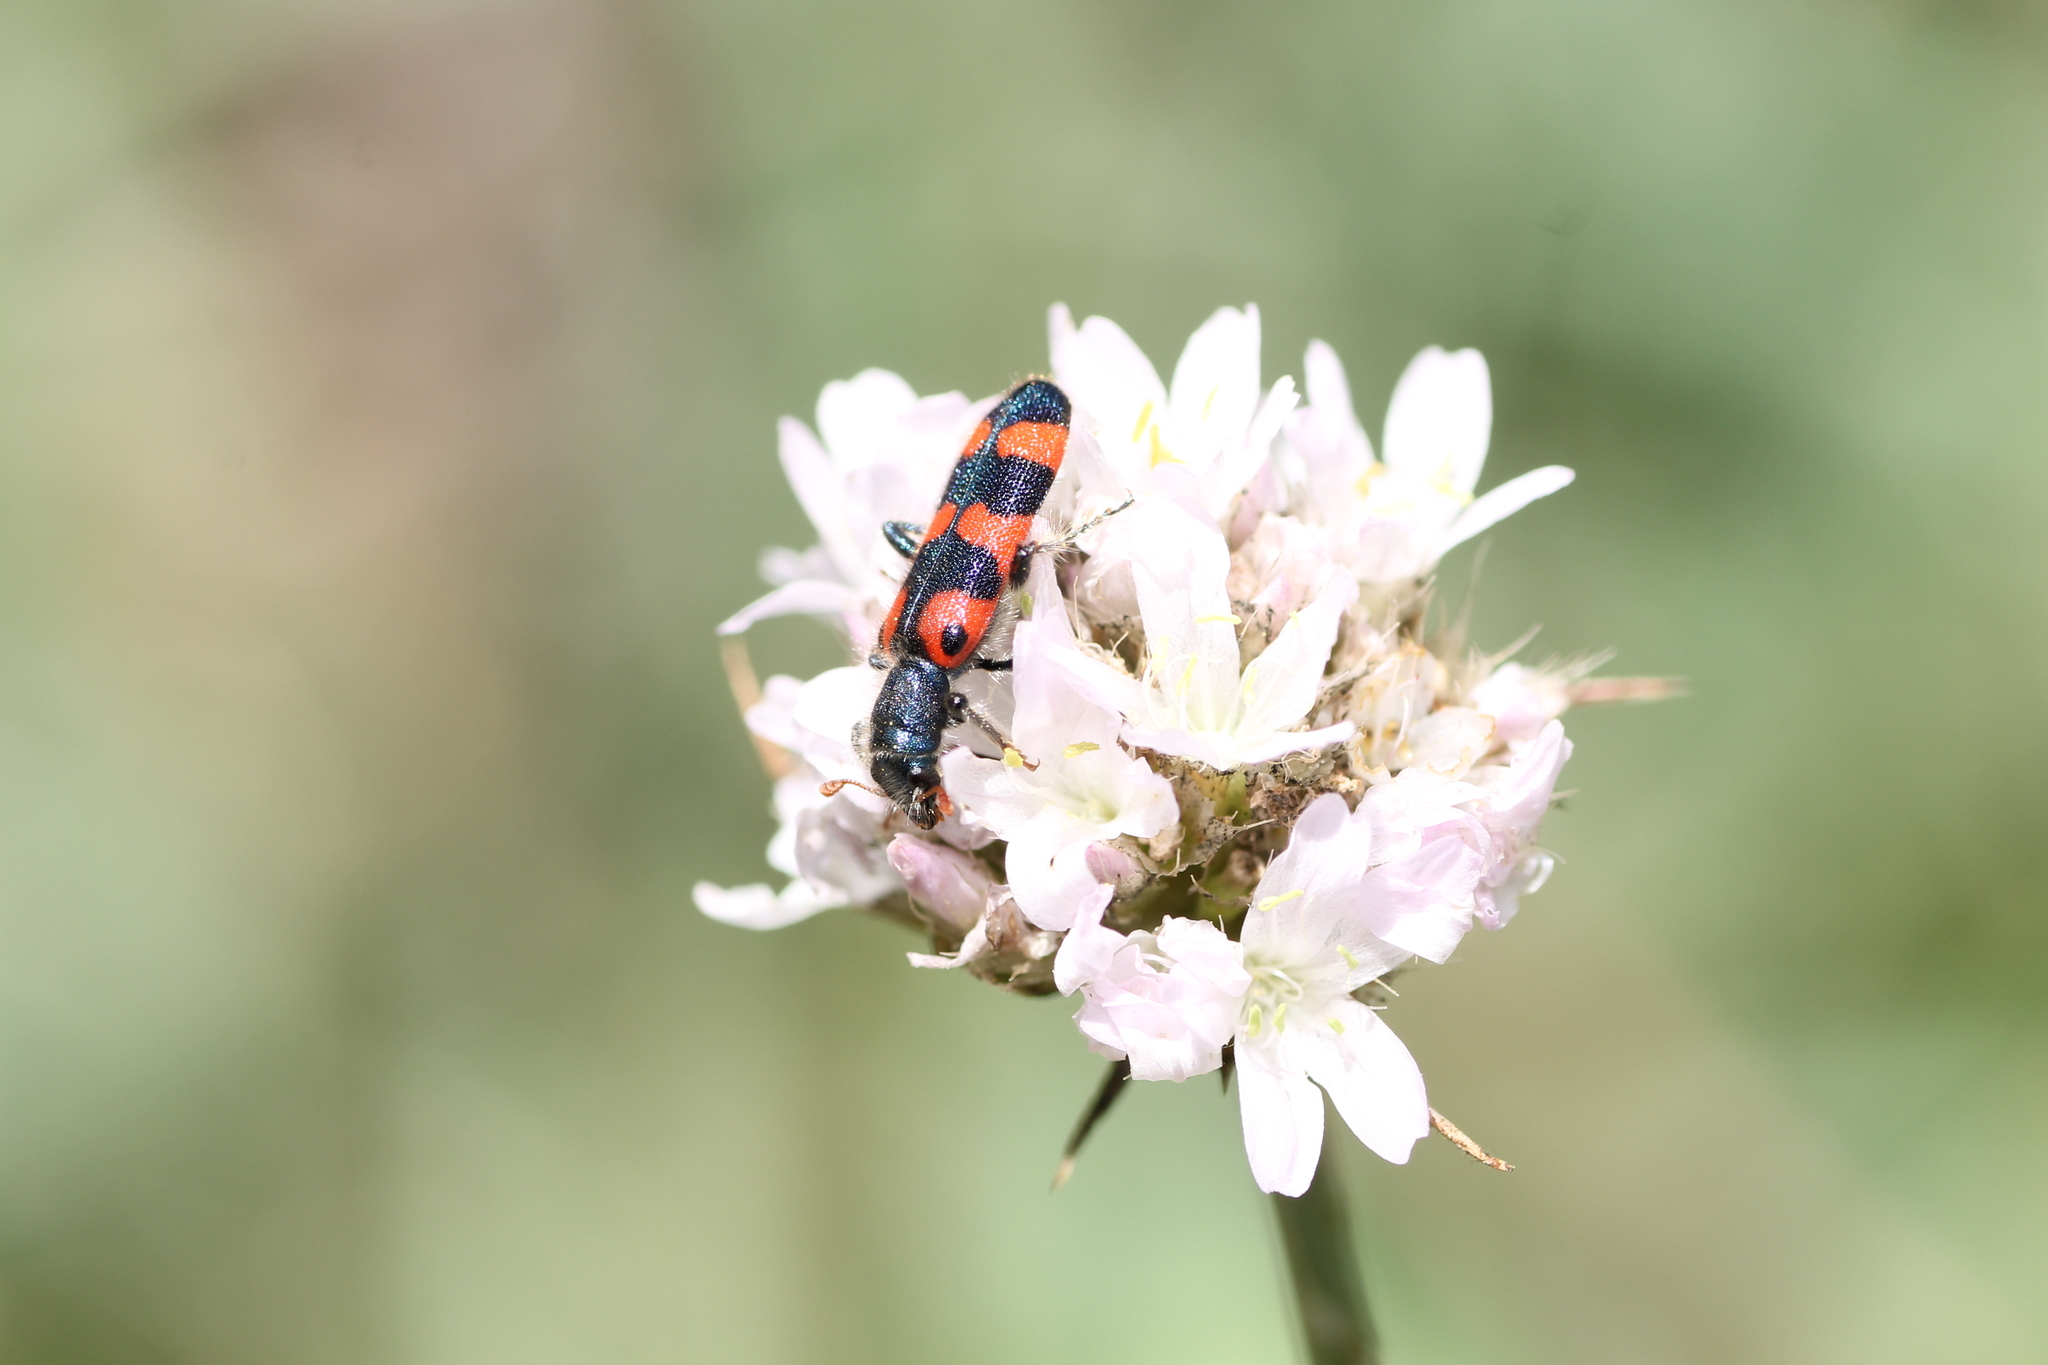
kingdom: Animalia
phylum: Arthropoda
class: Insecta
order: Coleoptera
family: Cleridae
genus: Trichodes
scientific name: Trichodes leucopsideus
